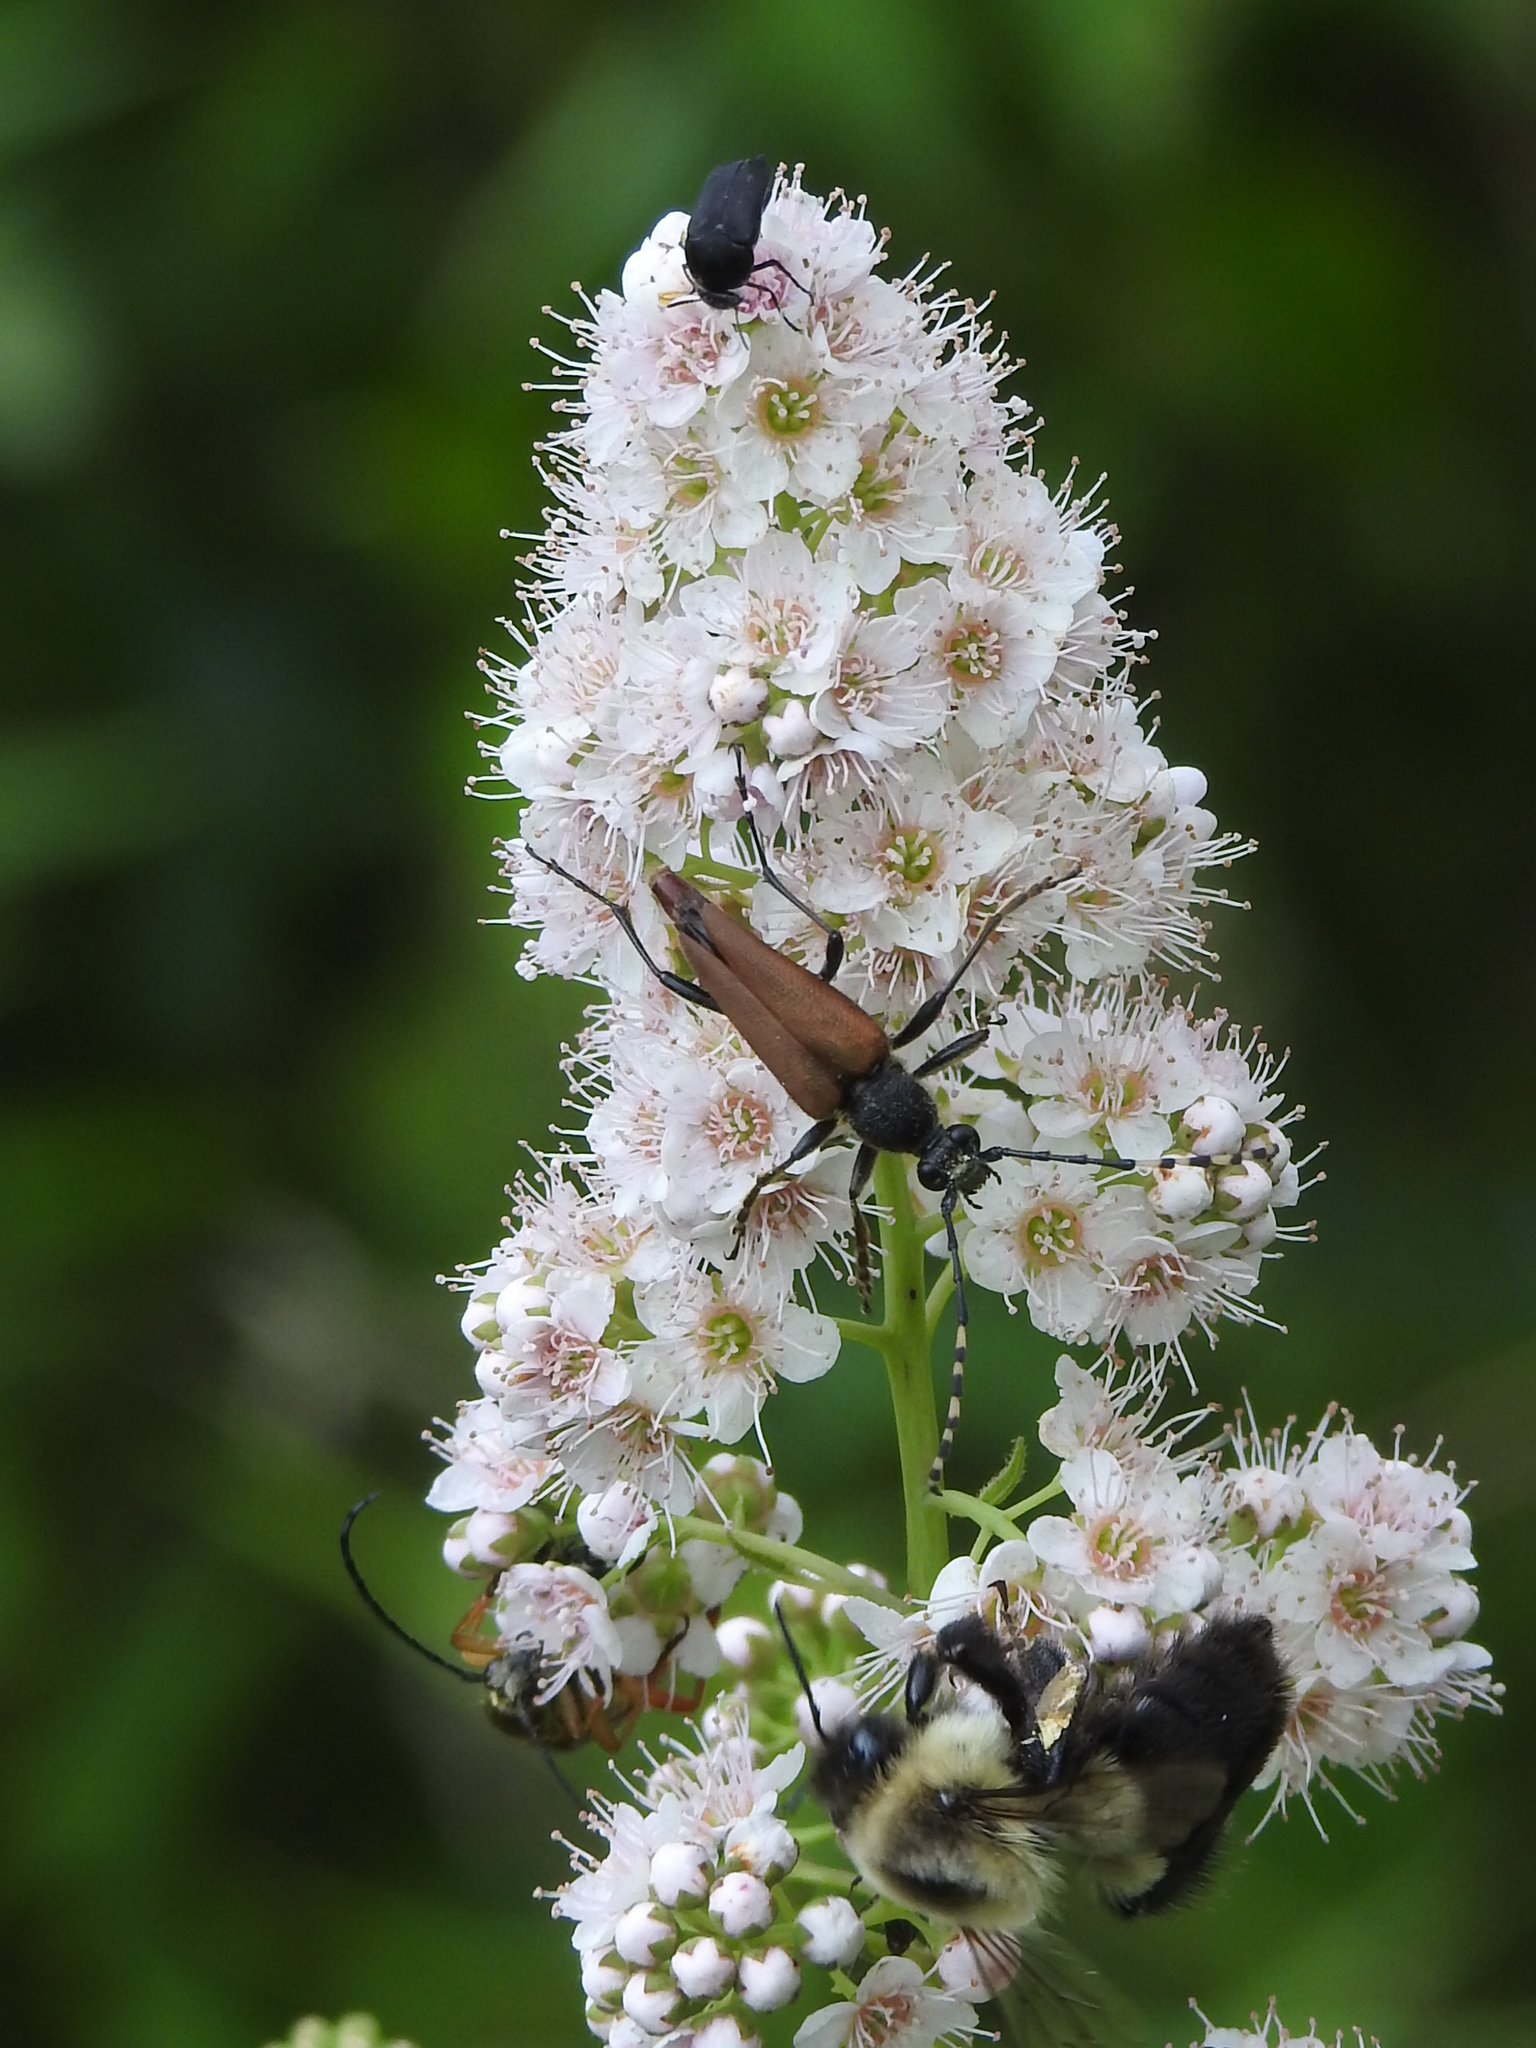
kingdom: Animalia
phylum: Arthropoda
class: Insecta
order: Coleoptera
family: Cerambycidae
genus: Brachyleptura
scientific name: Brachyleptura rubrica
